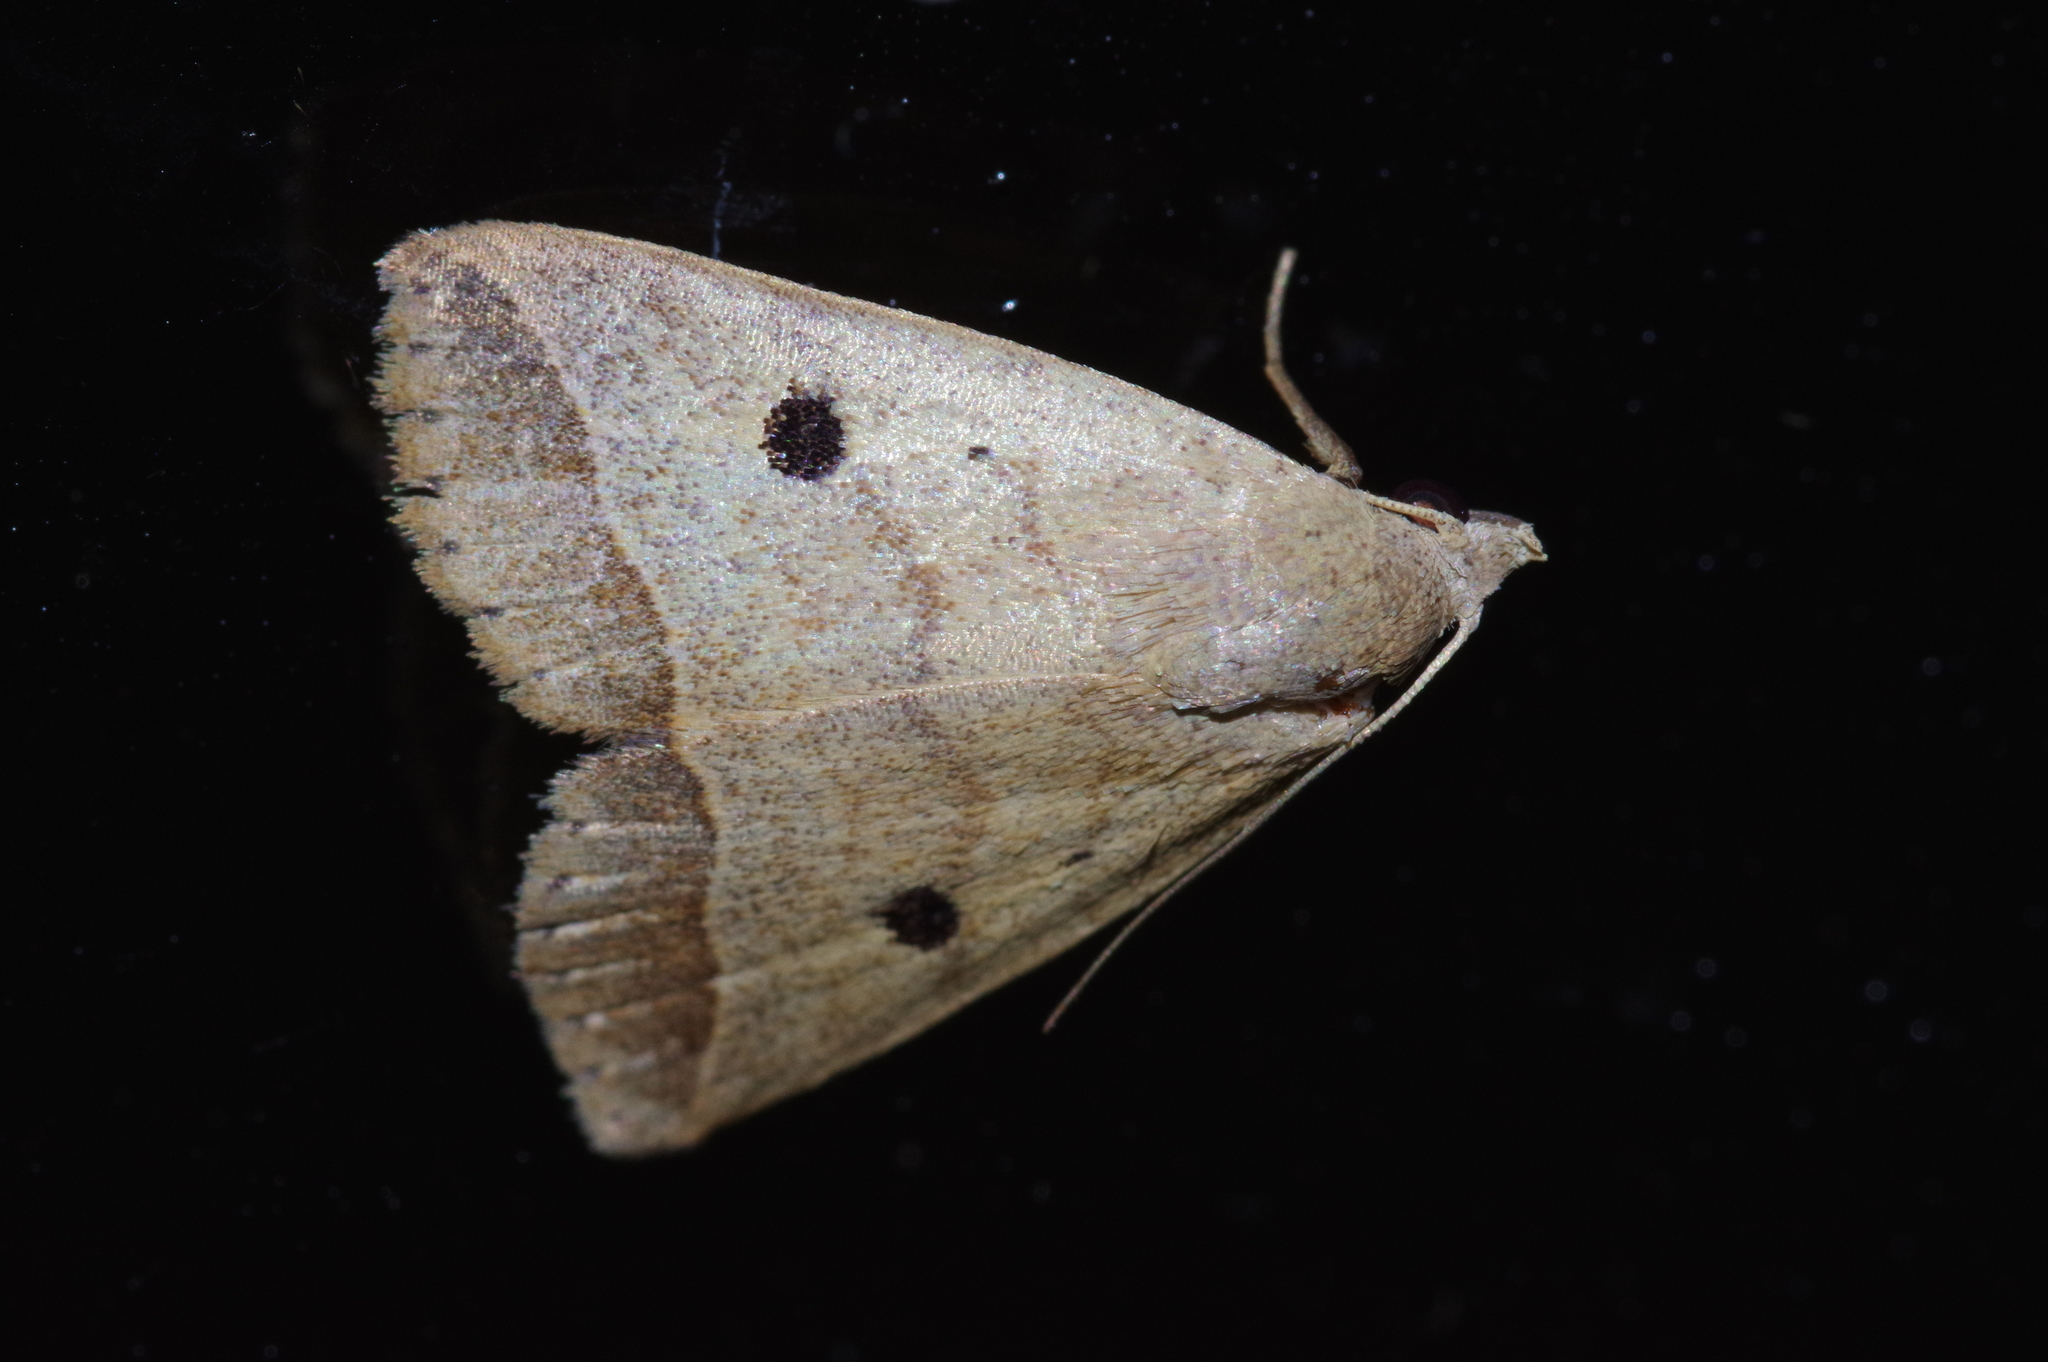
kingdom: Animalia
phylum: Arthropoda
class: Insecta
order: Lepidoptera
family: Erebidae
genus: Bocula
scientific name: Bocula caradrinoides
